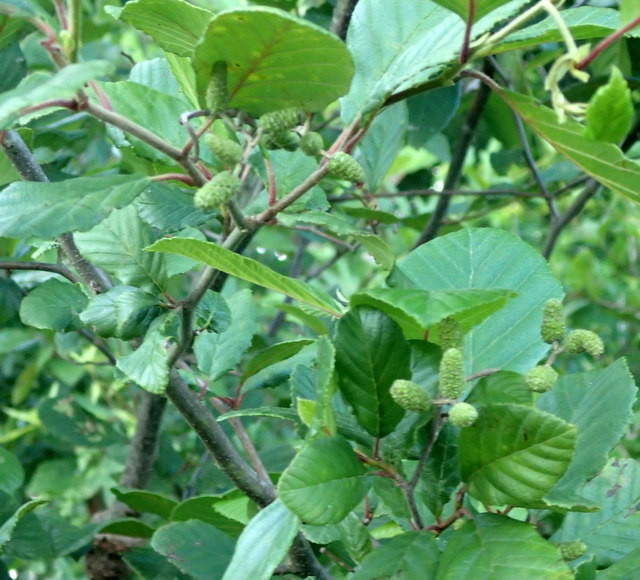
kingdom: Plantae
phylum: Tracheophyta
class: Magnoliopsida
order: Fagales
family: Betulaceae
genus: Alnus
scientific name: Alnus serrulata
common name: Hazel alder
